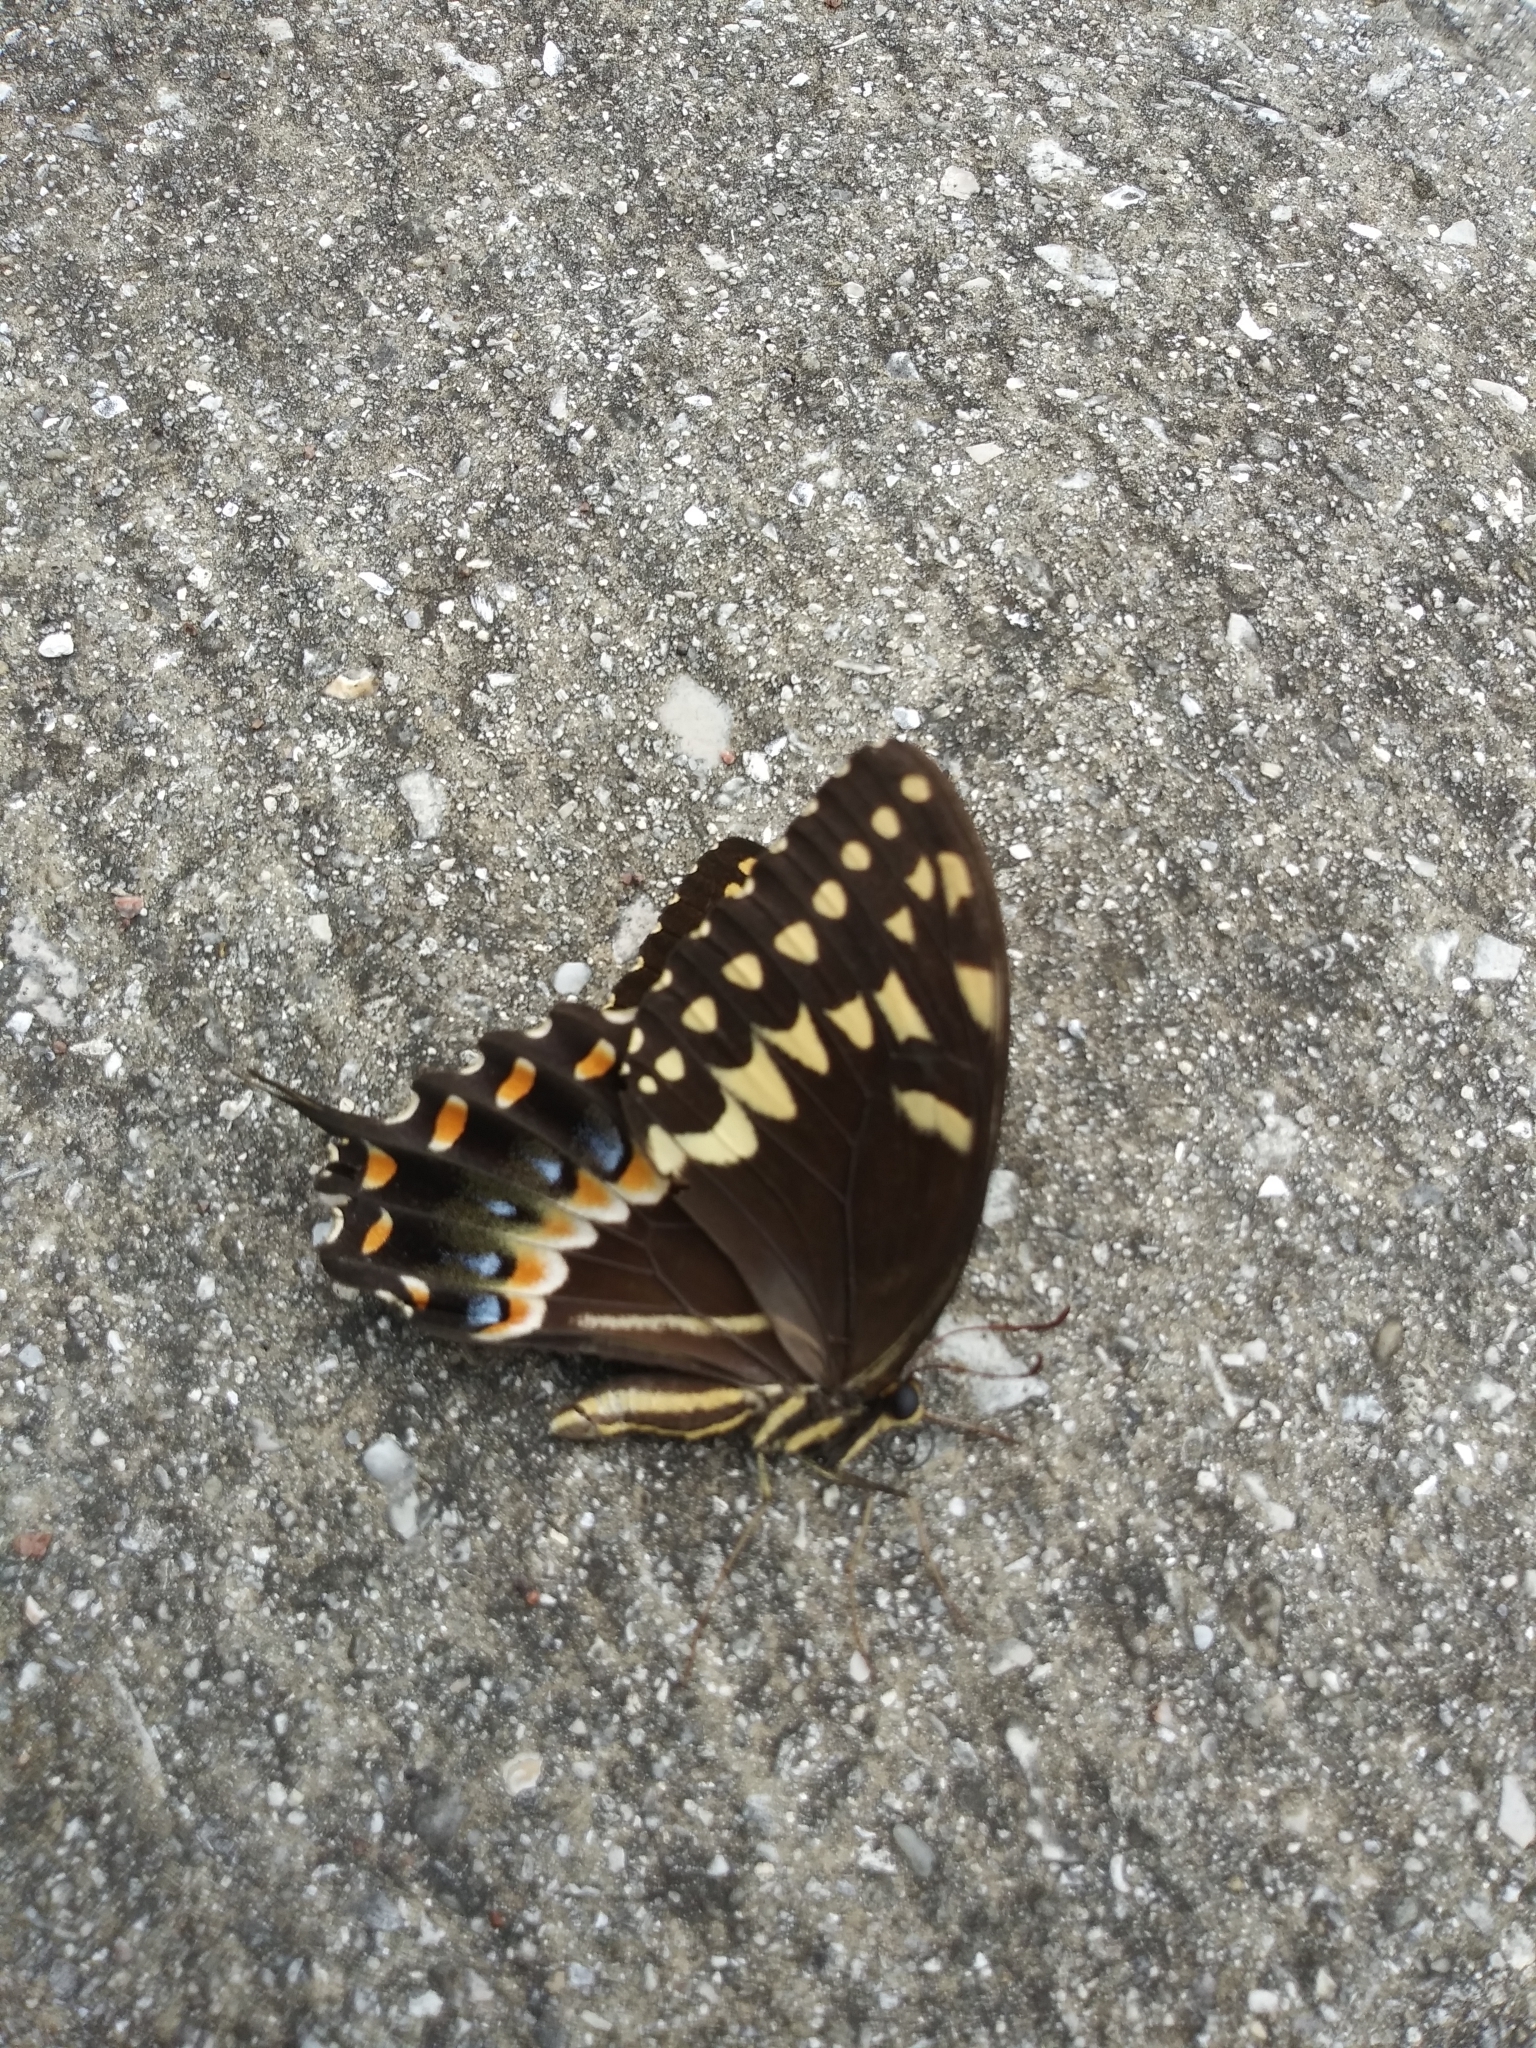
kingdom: Animalia
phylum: Arthropoda
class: Insecta
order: Lepidoptera
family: Papilionidae
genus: Papilio
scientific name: Papilio palamedes
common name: Palamedes swallowtail
